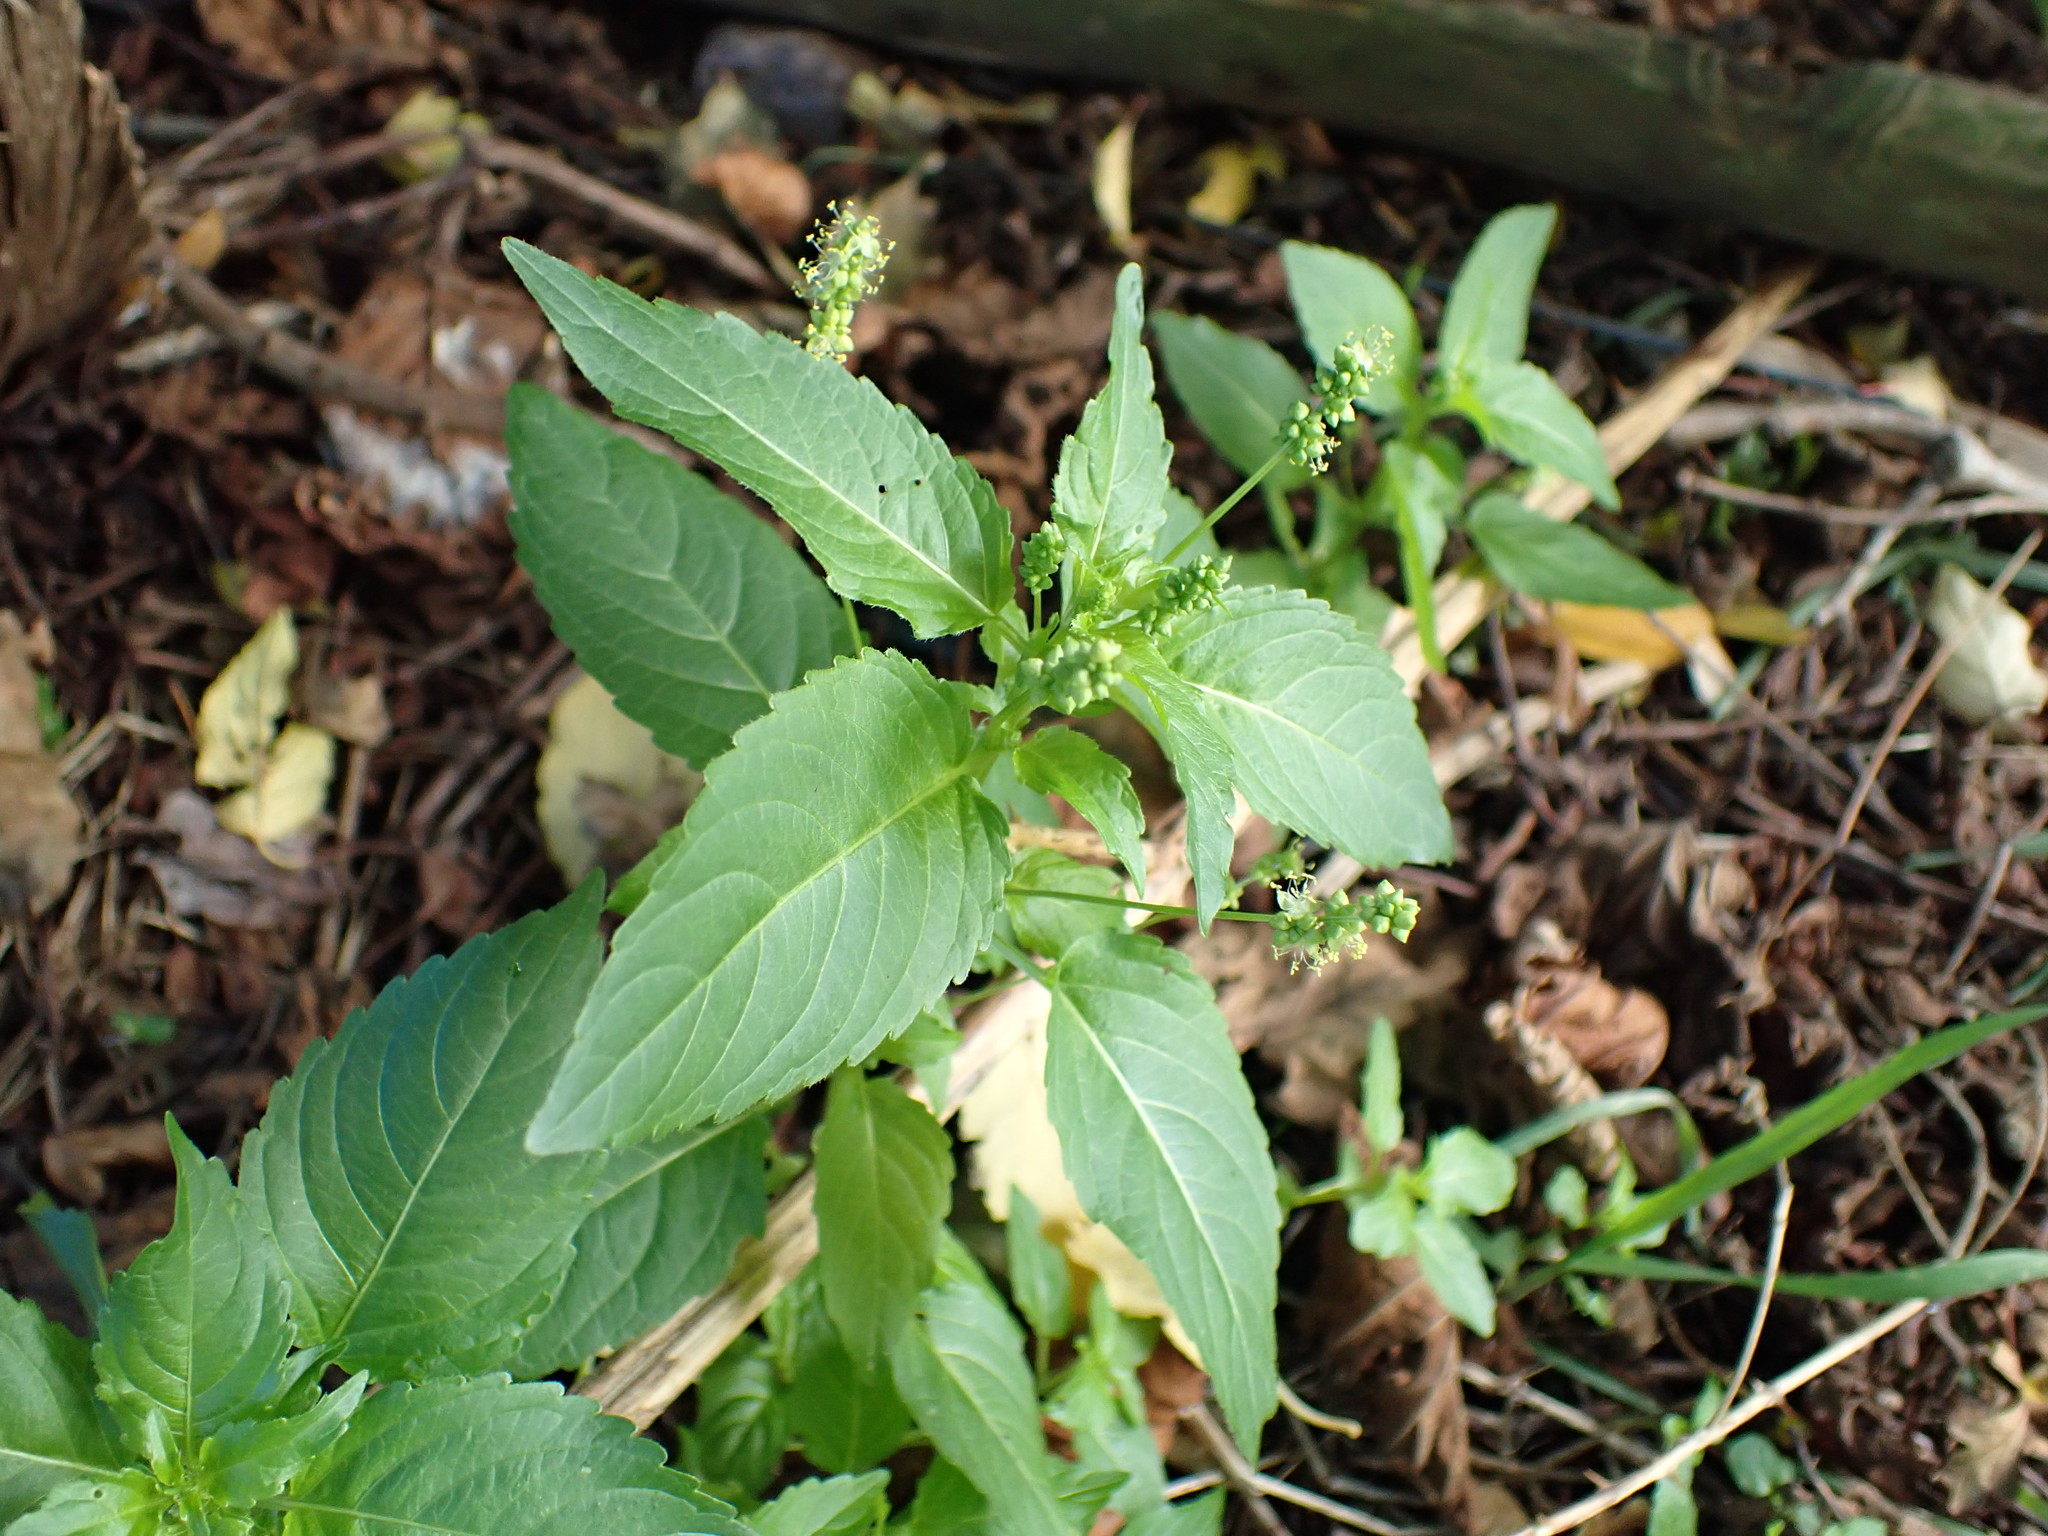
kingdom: Plantae
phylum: Tracheophyta
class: Magnoliopsida
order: Malpighiales
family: Euphorbiaceae
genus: Mercurialis
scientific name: Mercurialis annua
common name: Annual mercury
